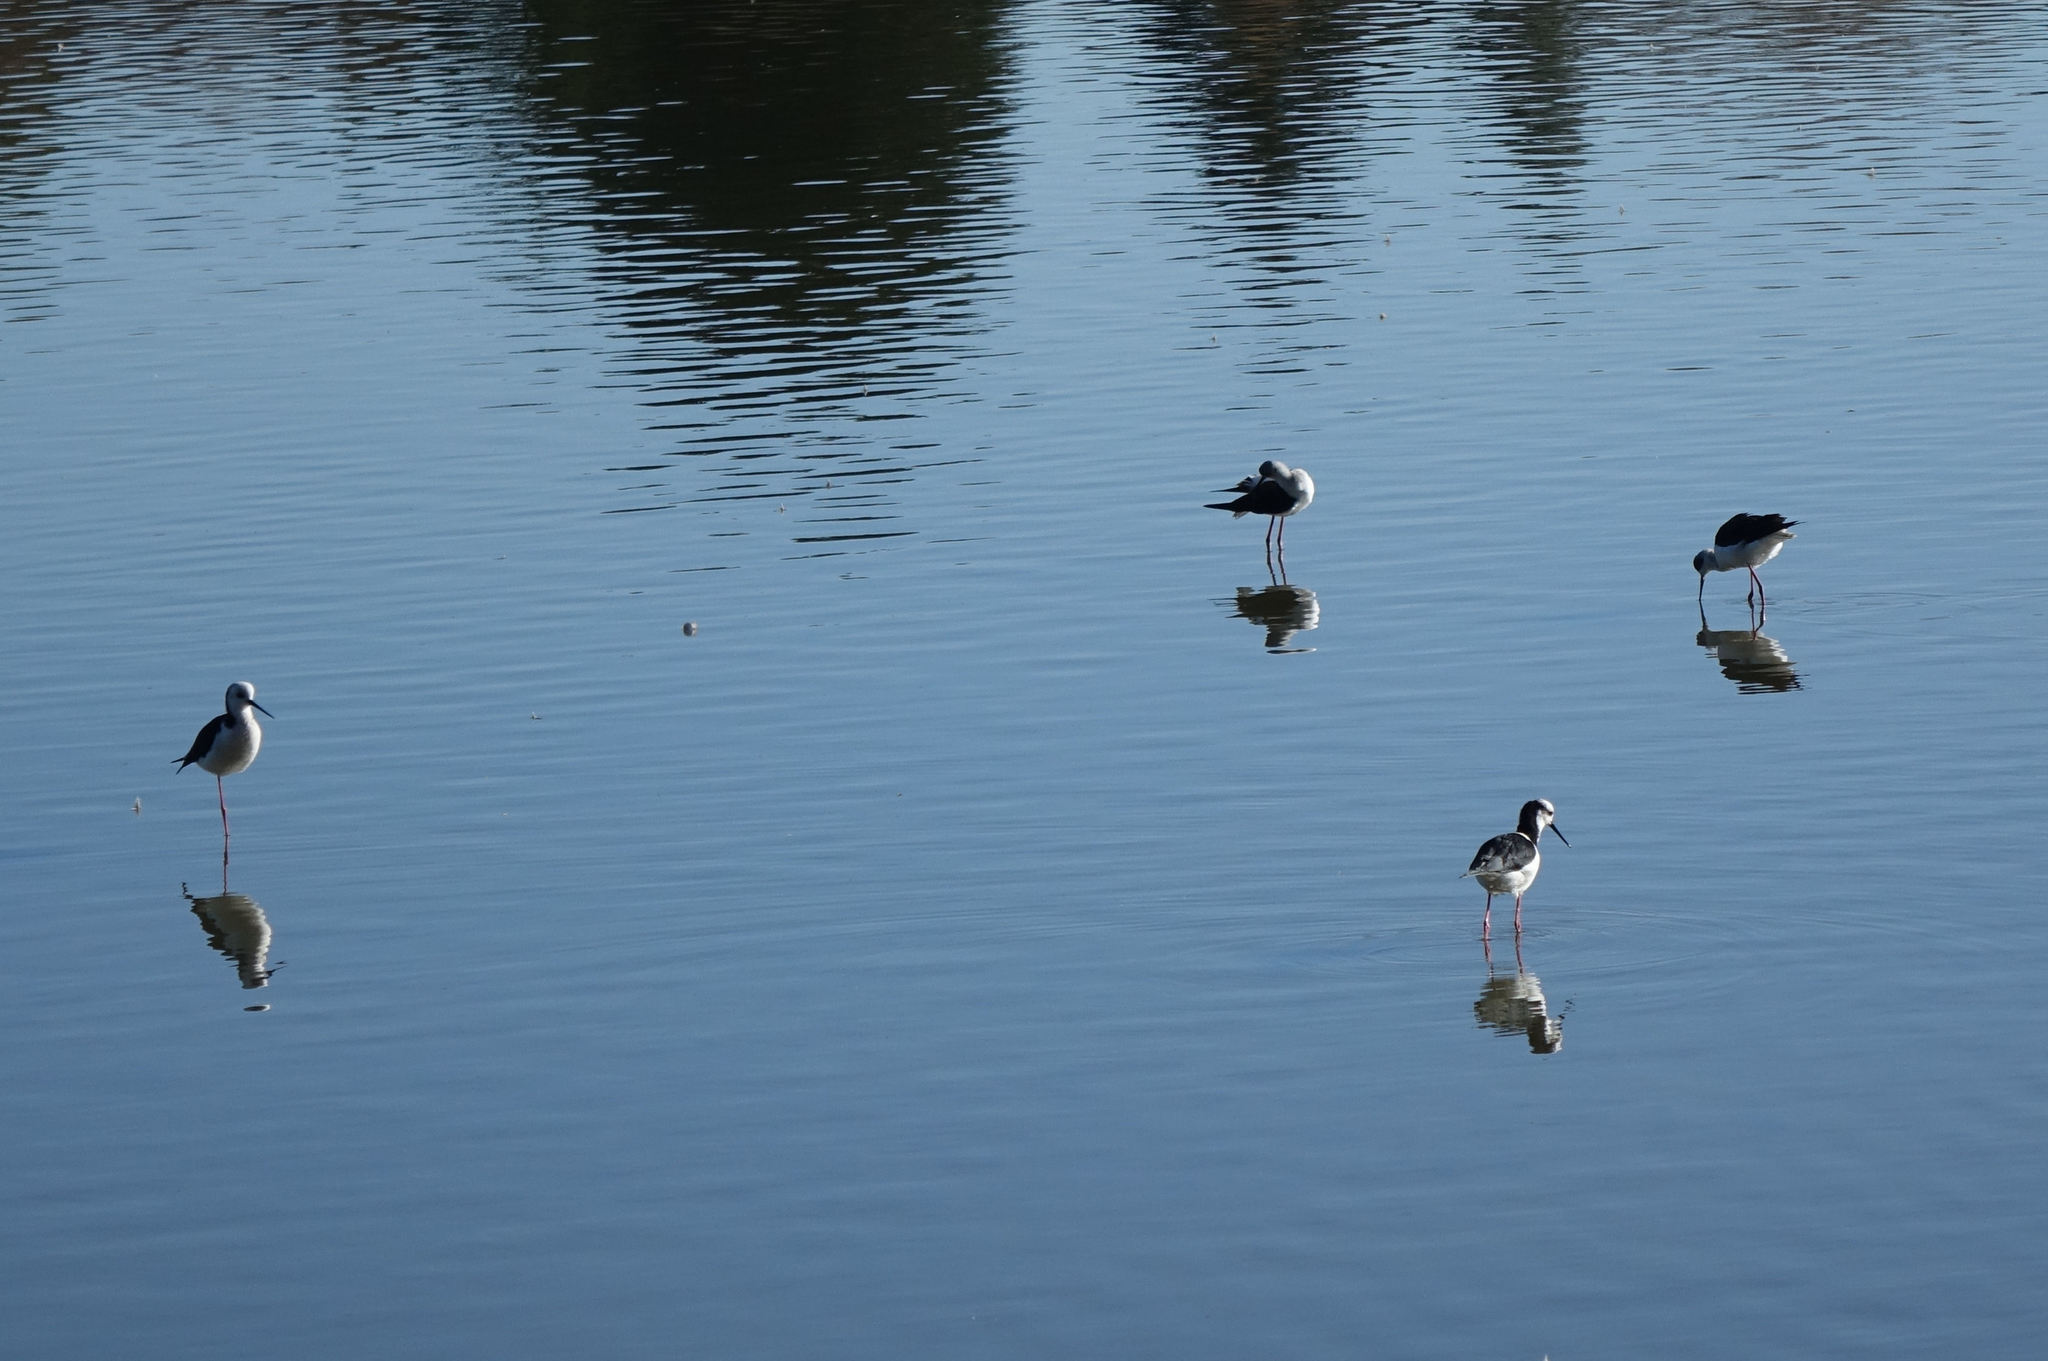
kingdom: Animalia
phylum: Chordata
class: Aves
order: Charadriiformes
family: Recurvirostridae
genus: Himantopus
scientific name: Himantopus leucocephalus
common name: White-headed stilt
